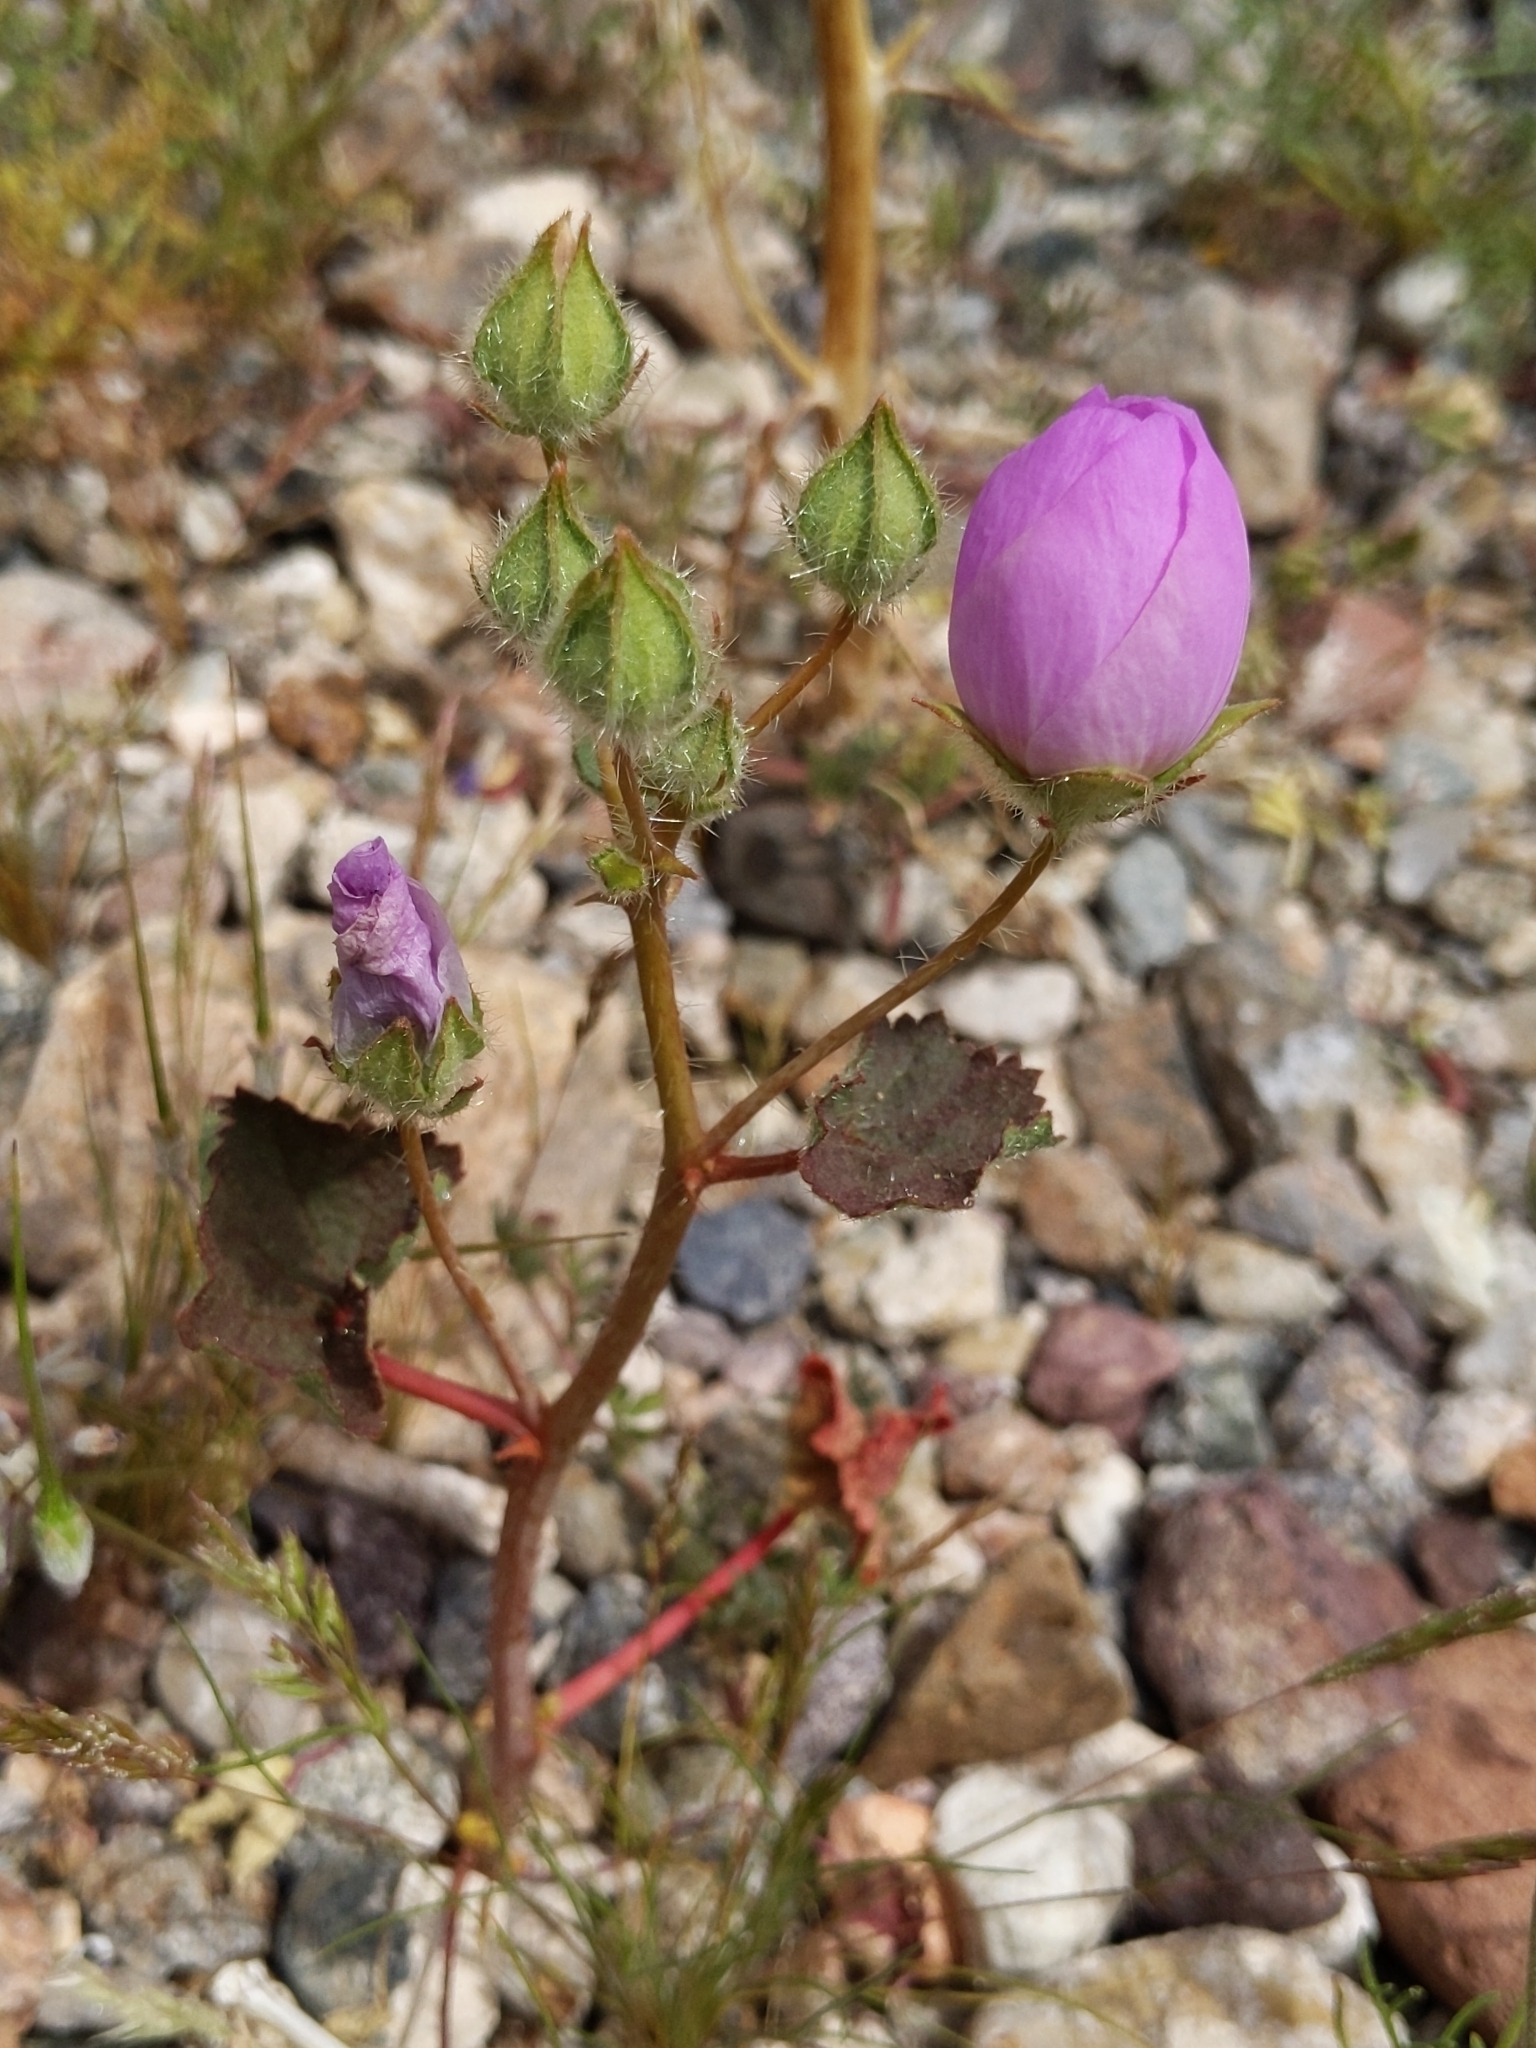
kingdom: Plantae
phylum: Tracheophyta
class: Magnoliopsida
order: Malvales
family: Malvaceae
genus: Eremalche
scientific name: Eremalche rotundifolia
